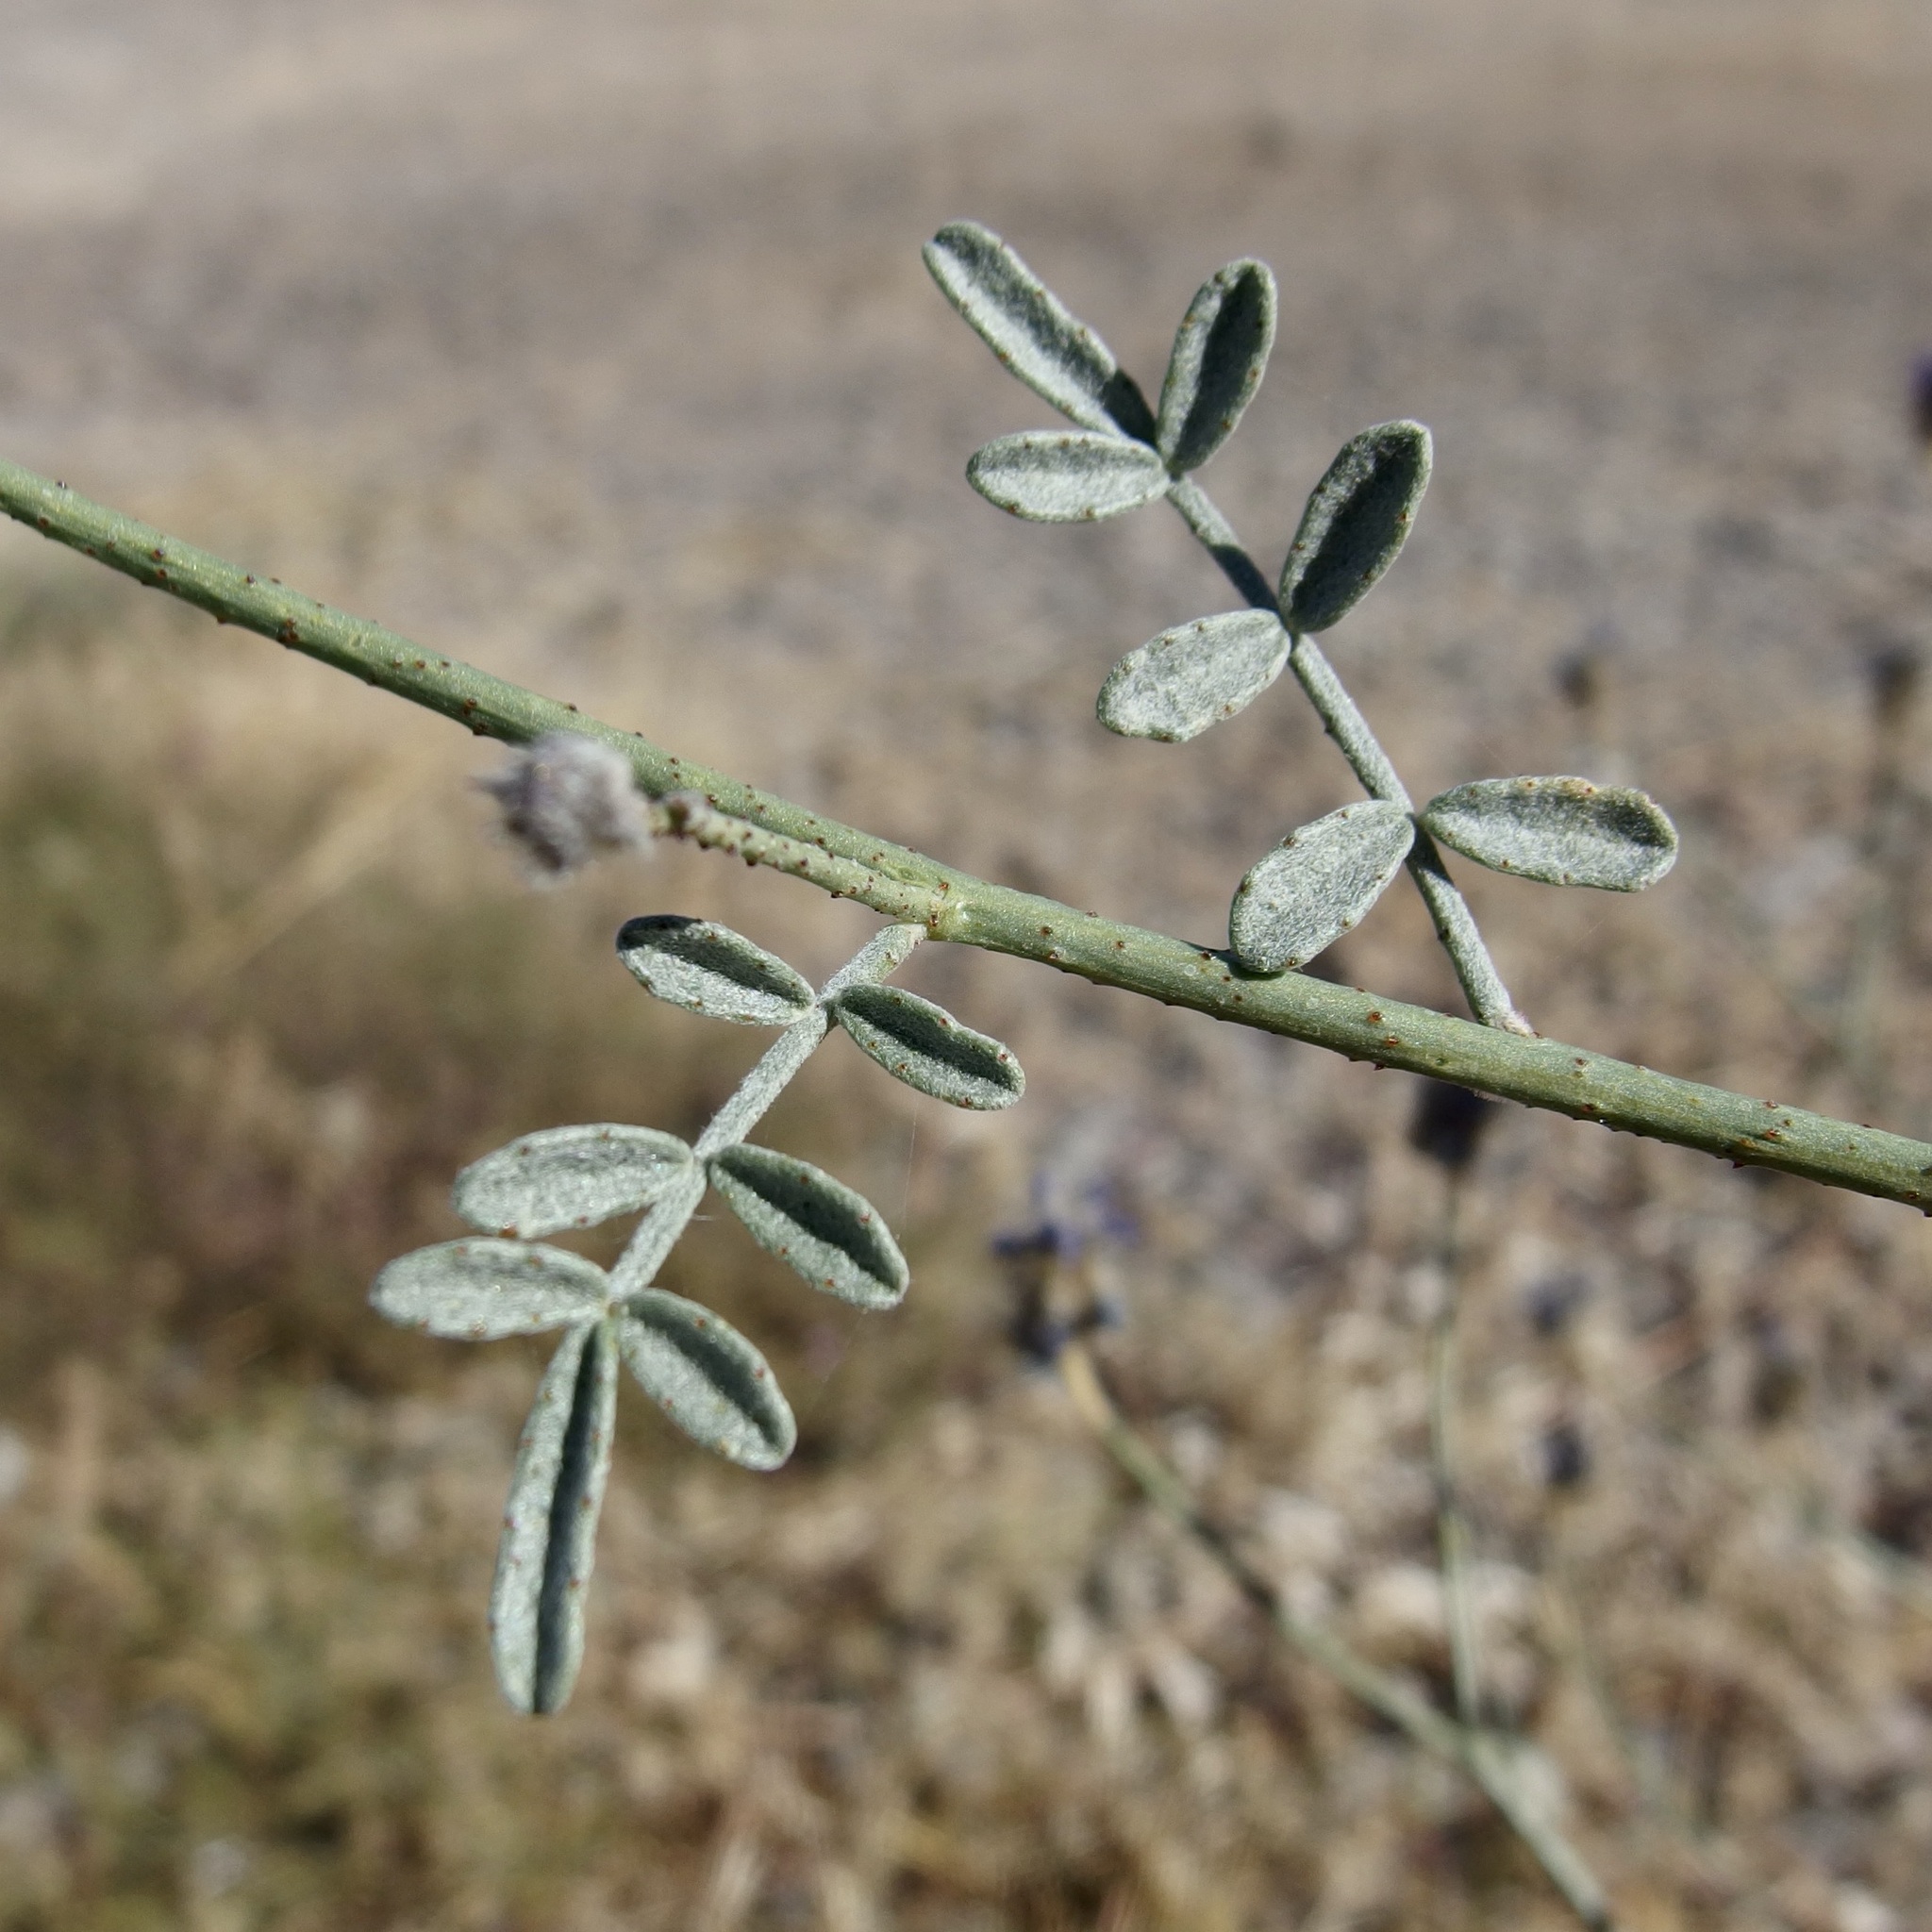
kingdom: Plantae
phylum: Tracheophyta
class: Magnoliopsida
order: Fabales
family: Fabaceae
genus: Psorothamnus
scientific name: Psorothamnus emoryi
